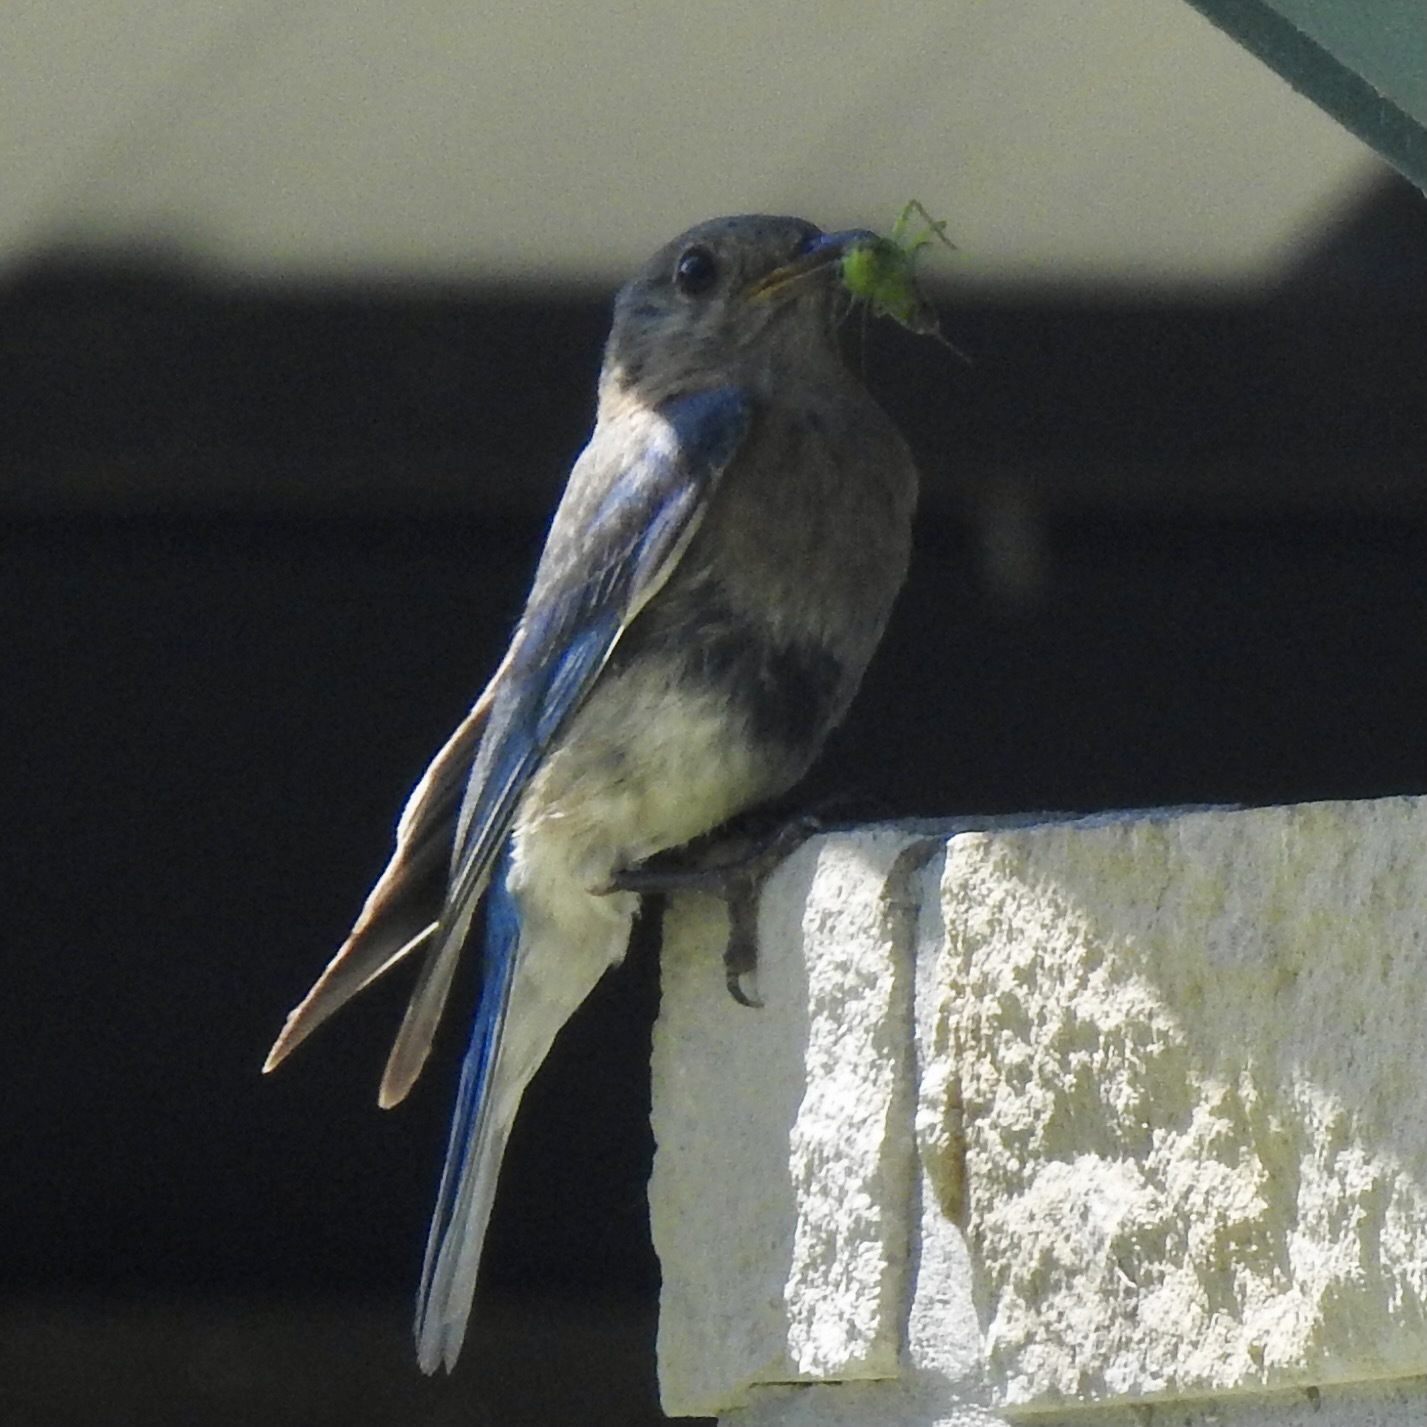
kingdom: Animalia
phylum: Chordata
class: Aves
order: Passeriformes
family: Turdidae
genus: Sialia
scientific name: Sialia sialis
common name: Eastern bluebird
